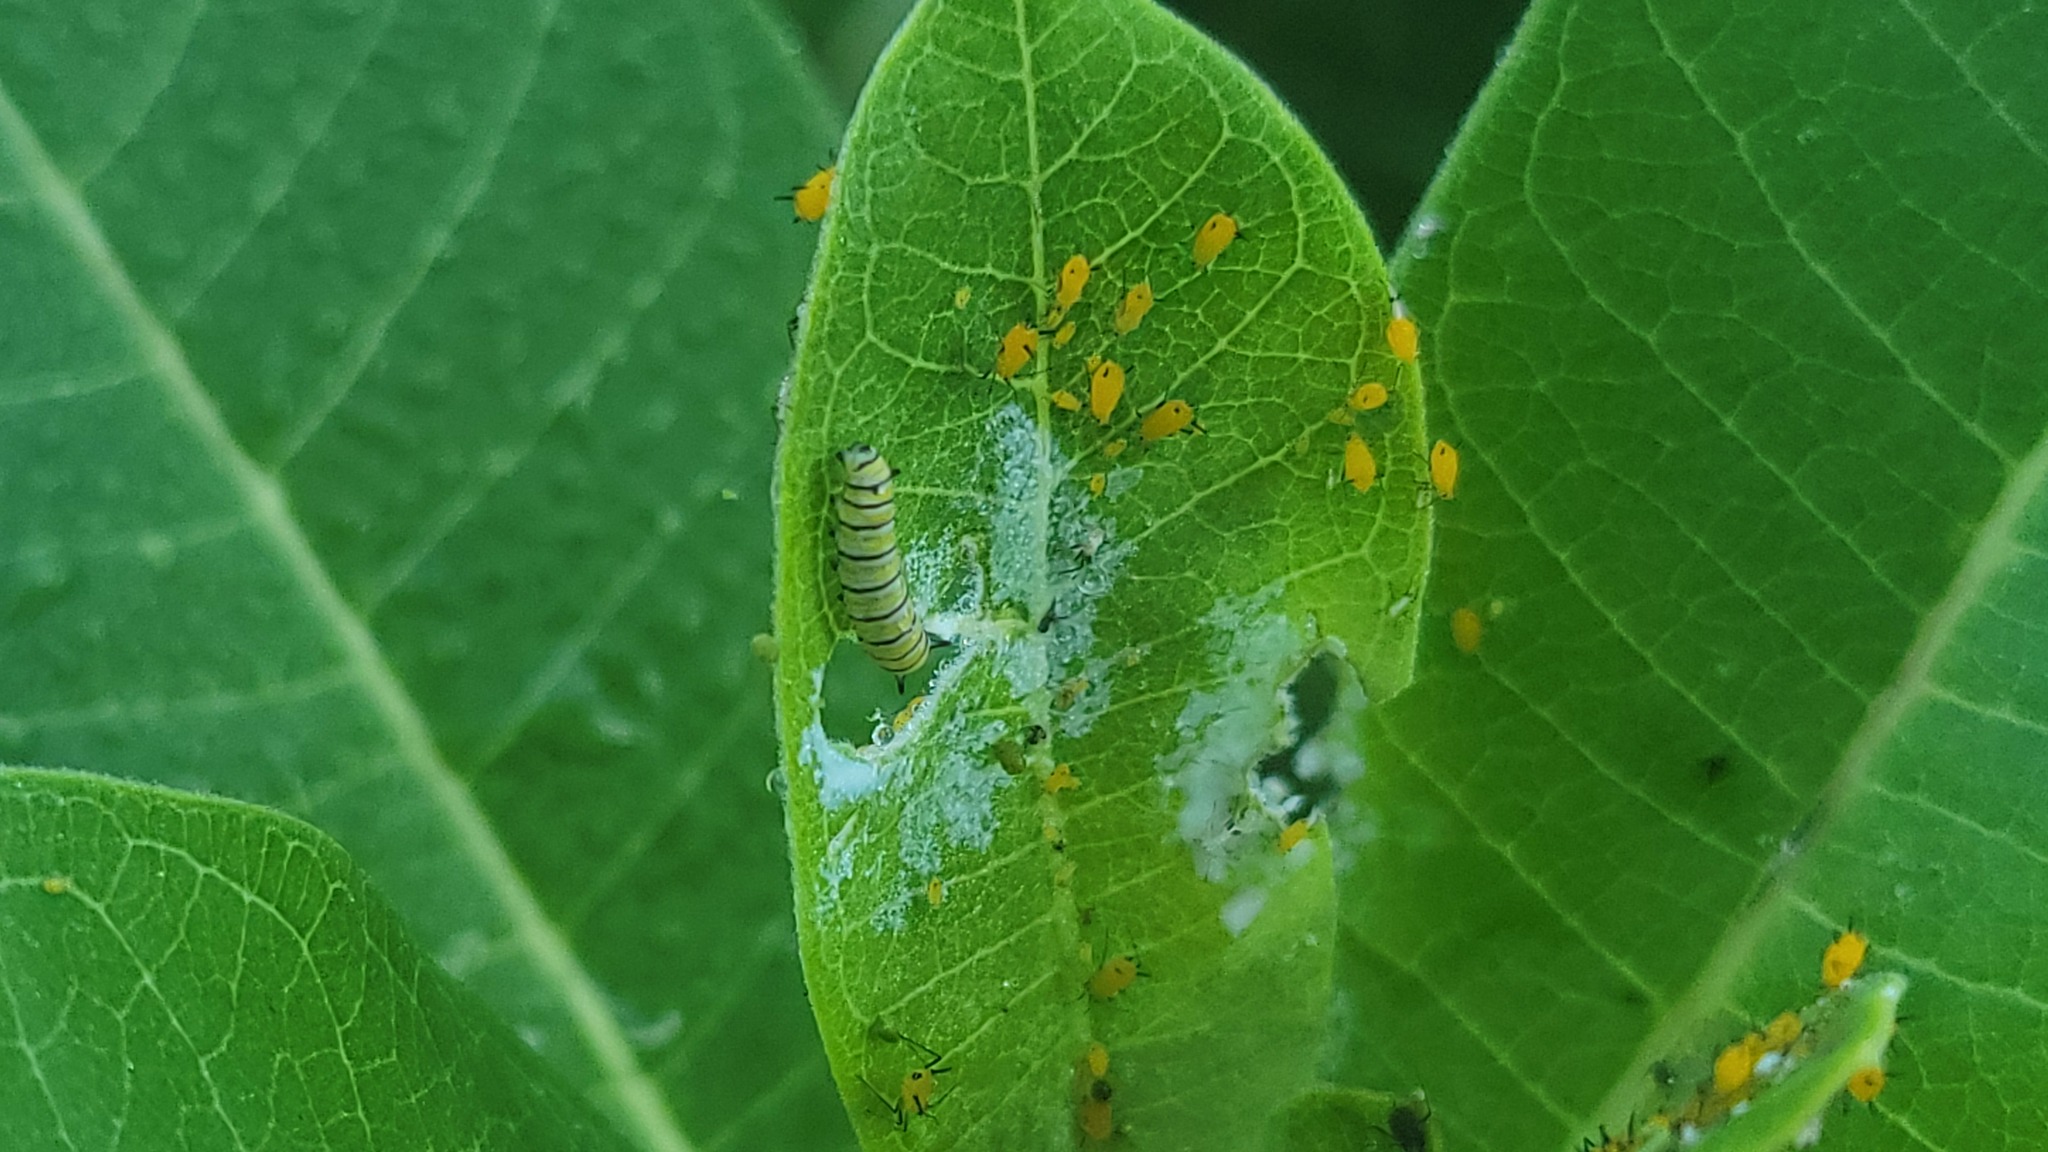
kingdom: Animalia
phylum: Arthropoda
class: Insecta
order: Lepidoptera
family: Nymphalidae
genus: Danaus
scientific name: Danaus plexippus
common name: Monarch
